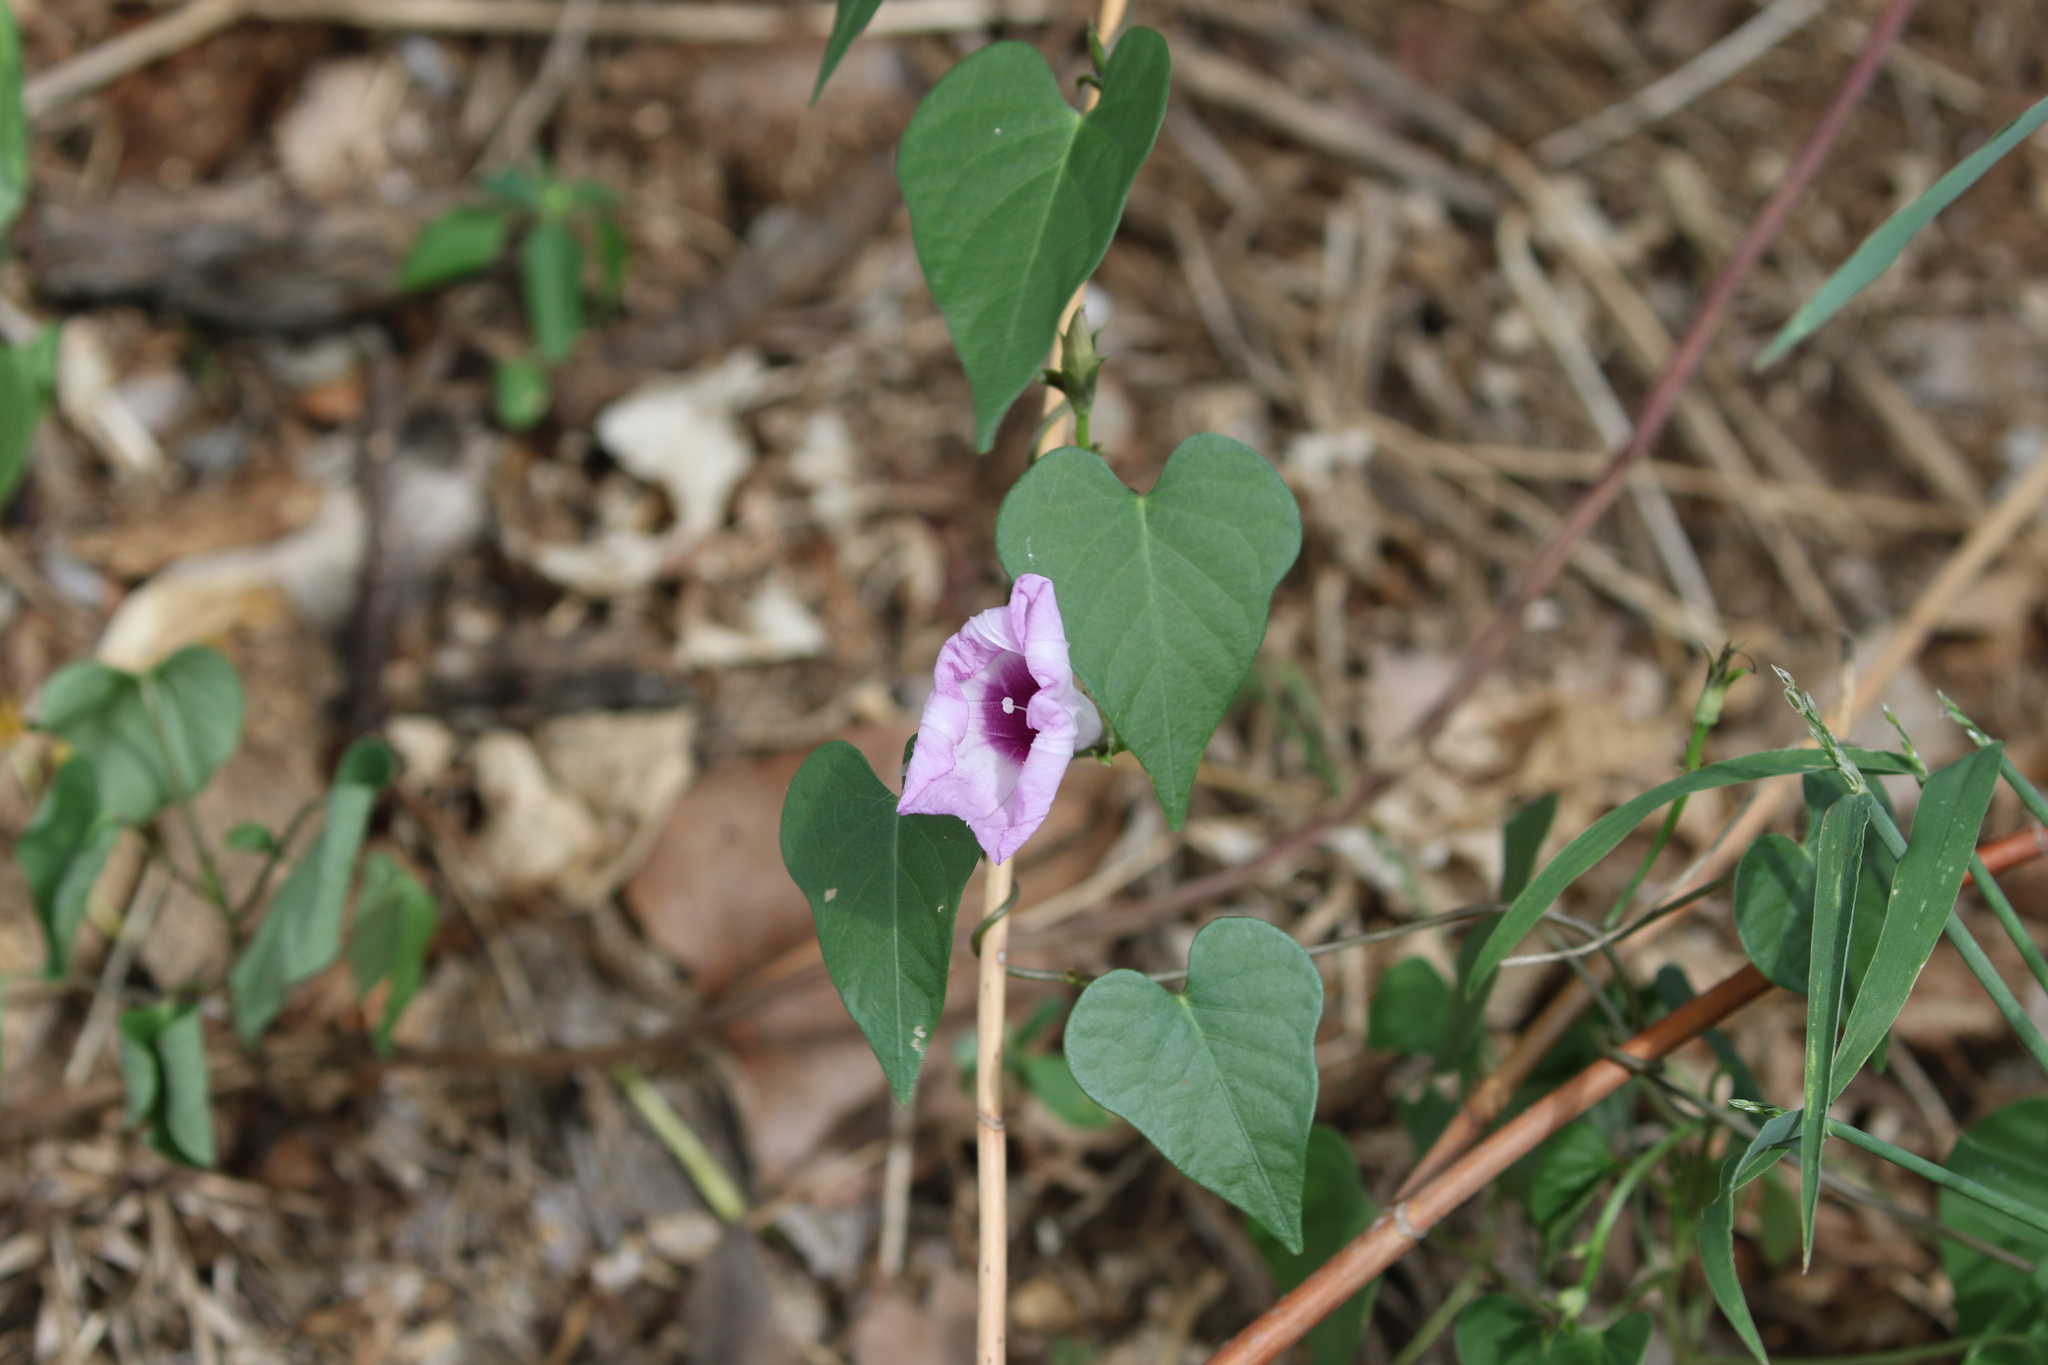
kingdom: Plantae
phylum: Tracheophyta
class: Magnoliopsida
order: Solanales
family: Convolvulaceae
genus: Ipomoea
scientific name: Ipomoea cordatotriloba
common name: Cotton morning glory
